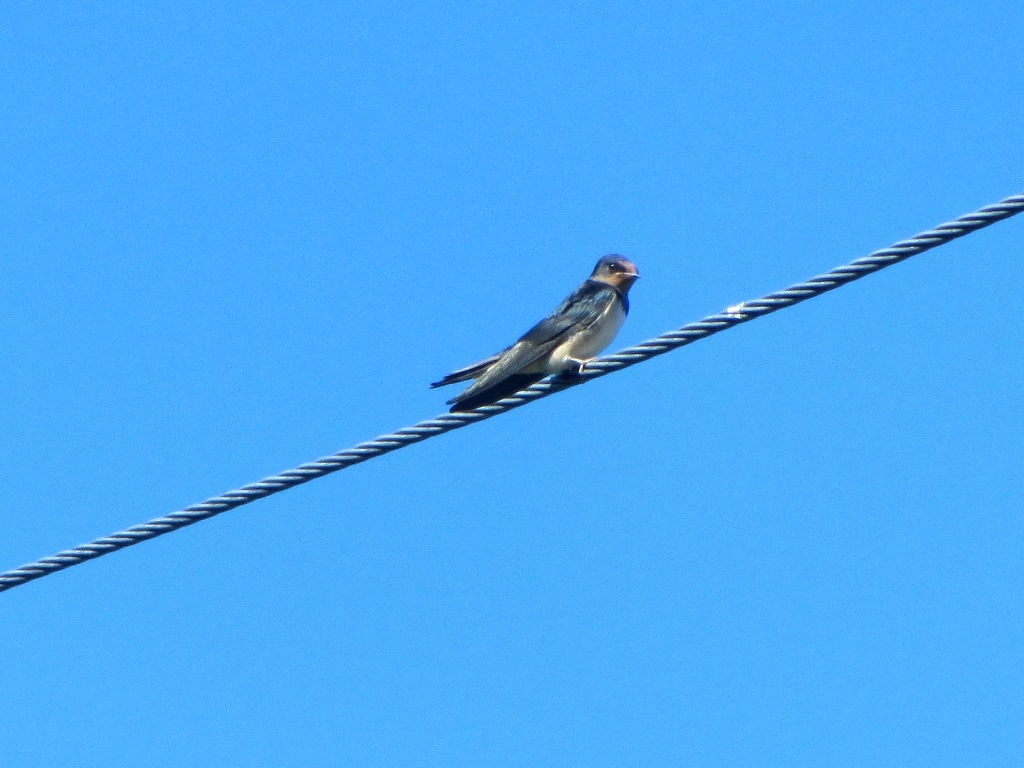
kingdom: Animalia
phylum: Chordata
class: Aves
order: Passeriformes
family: Hirundinidae
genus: Hirundo
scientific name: Hirundo rustica
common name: Barn swallow
